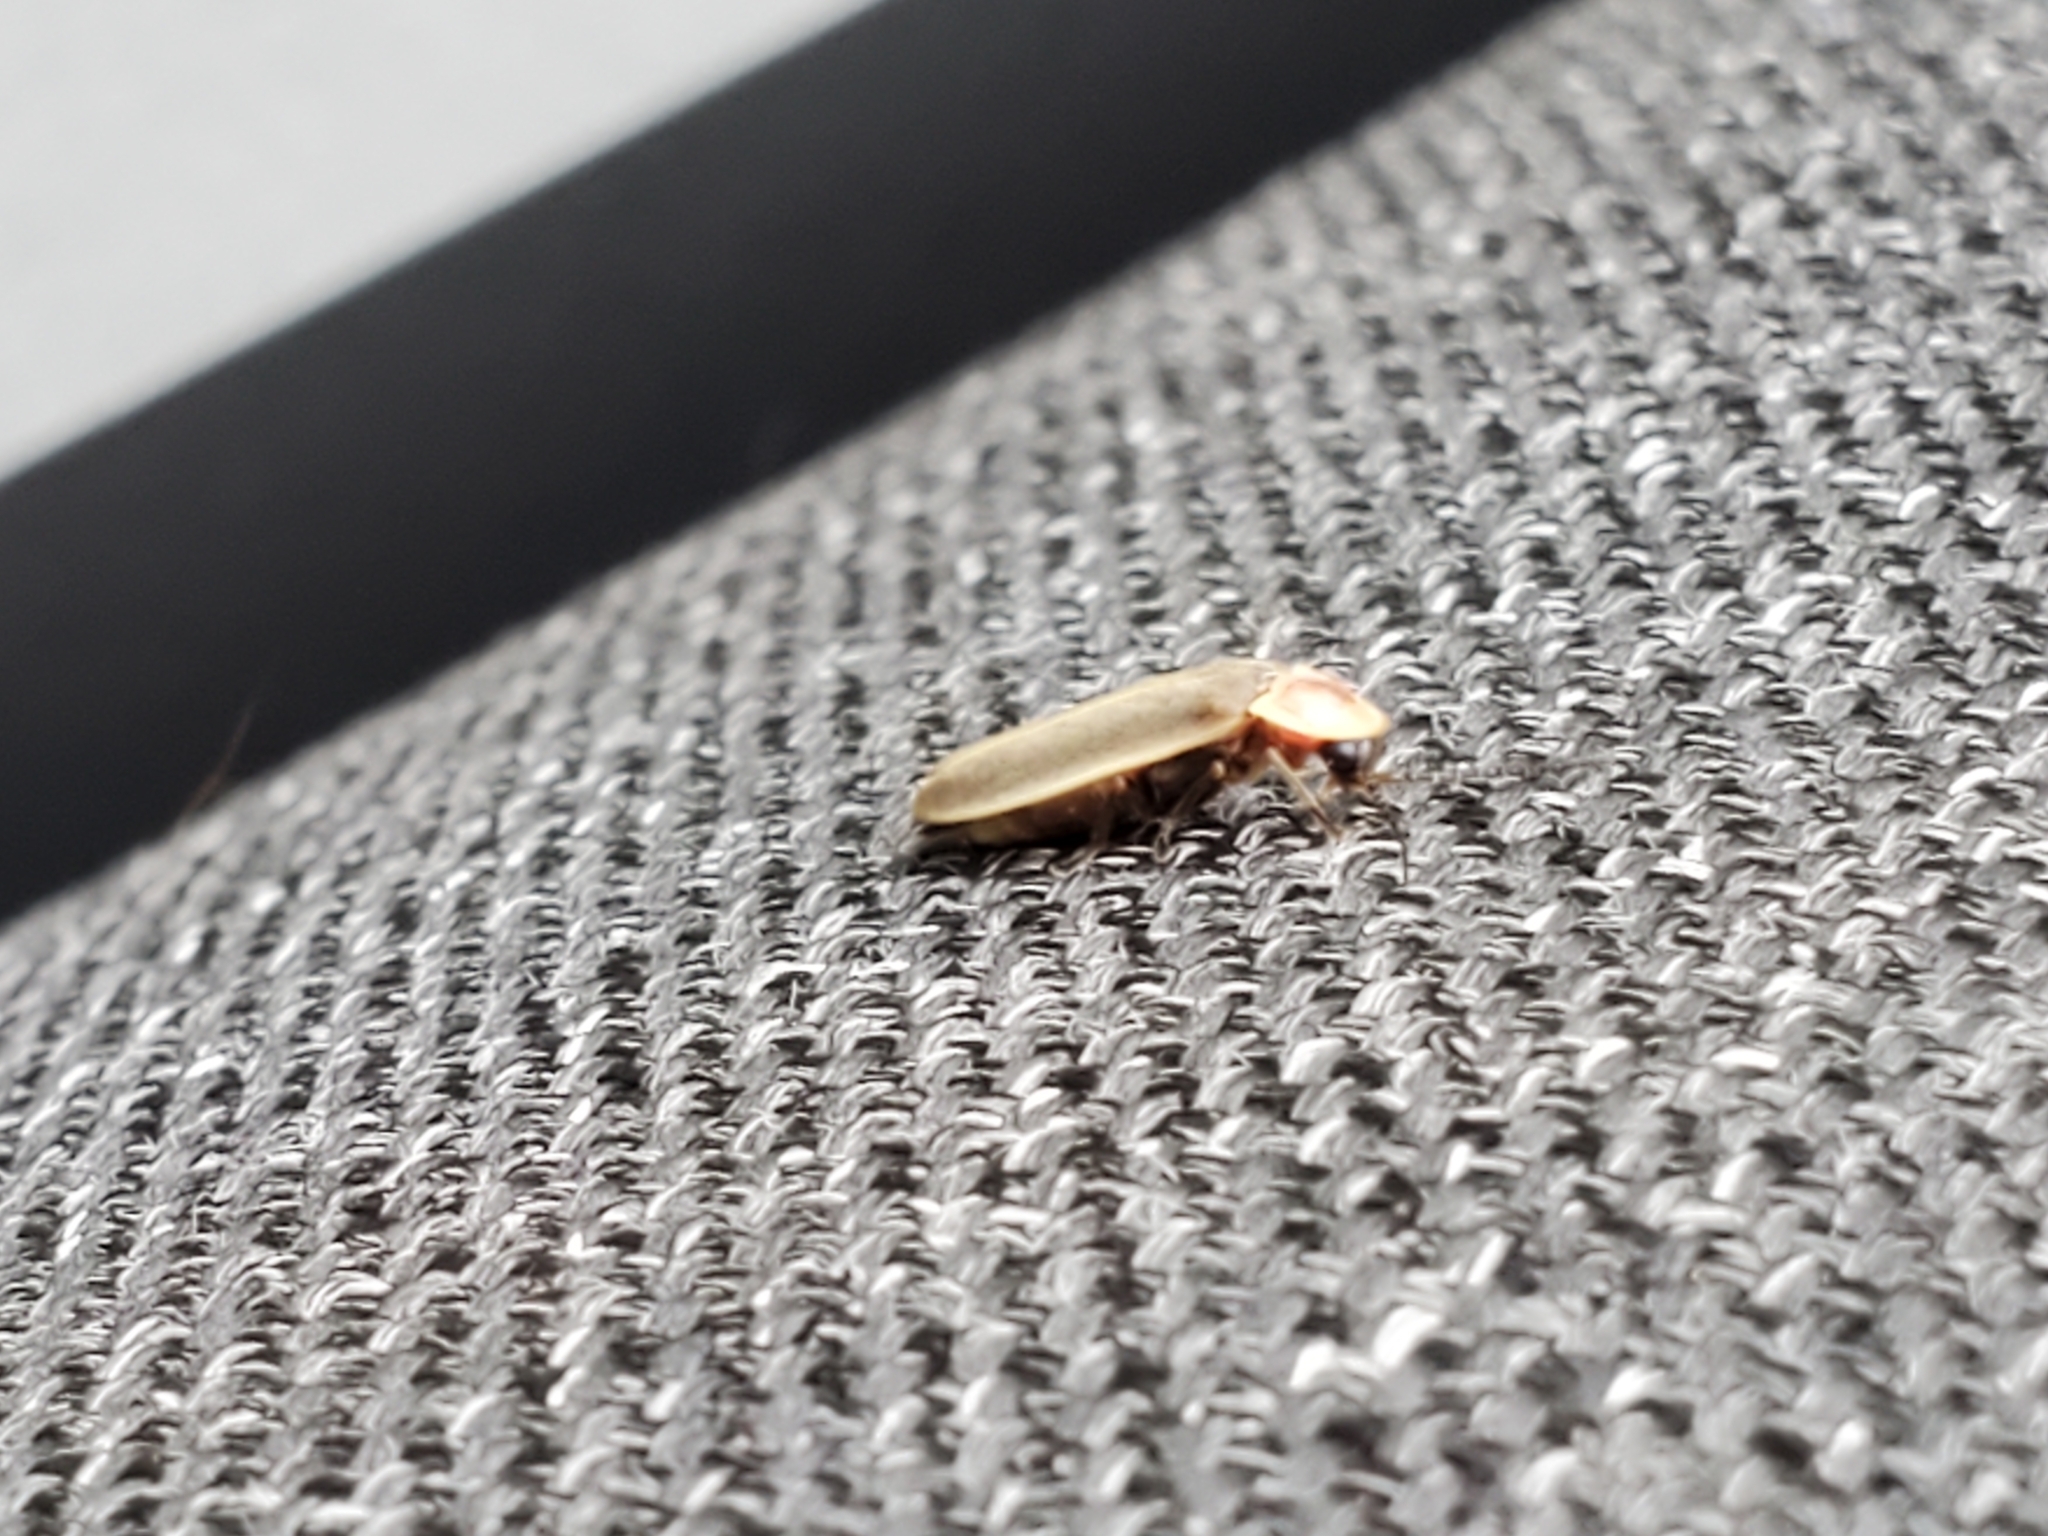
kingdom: Animalia
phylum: Arthropoda
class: Insecta
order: Coleoptera
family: Lampyridae
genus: Photinus
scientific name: Photinus marginellus
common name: Little gray firefly
